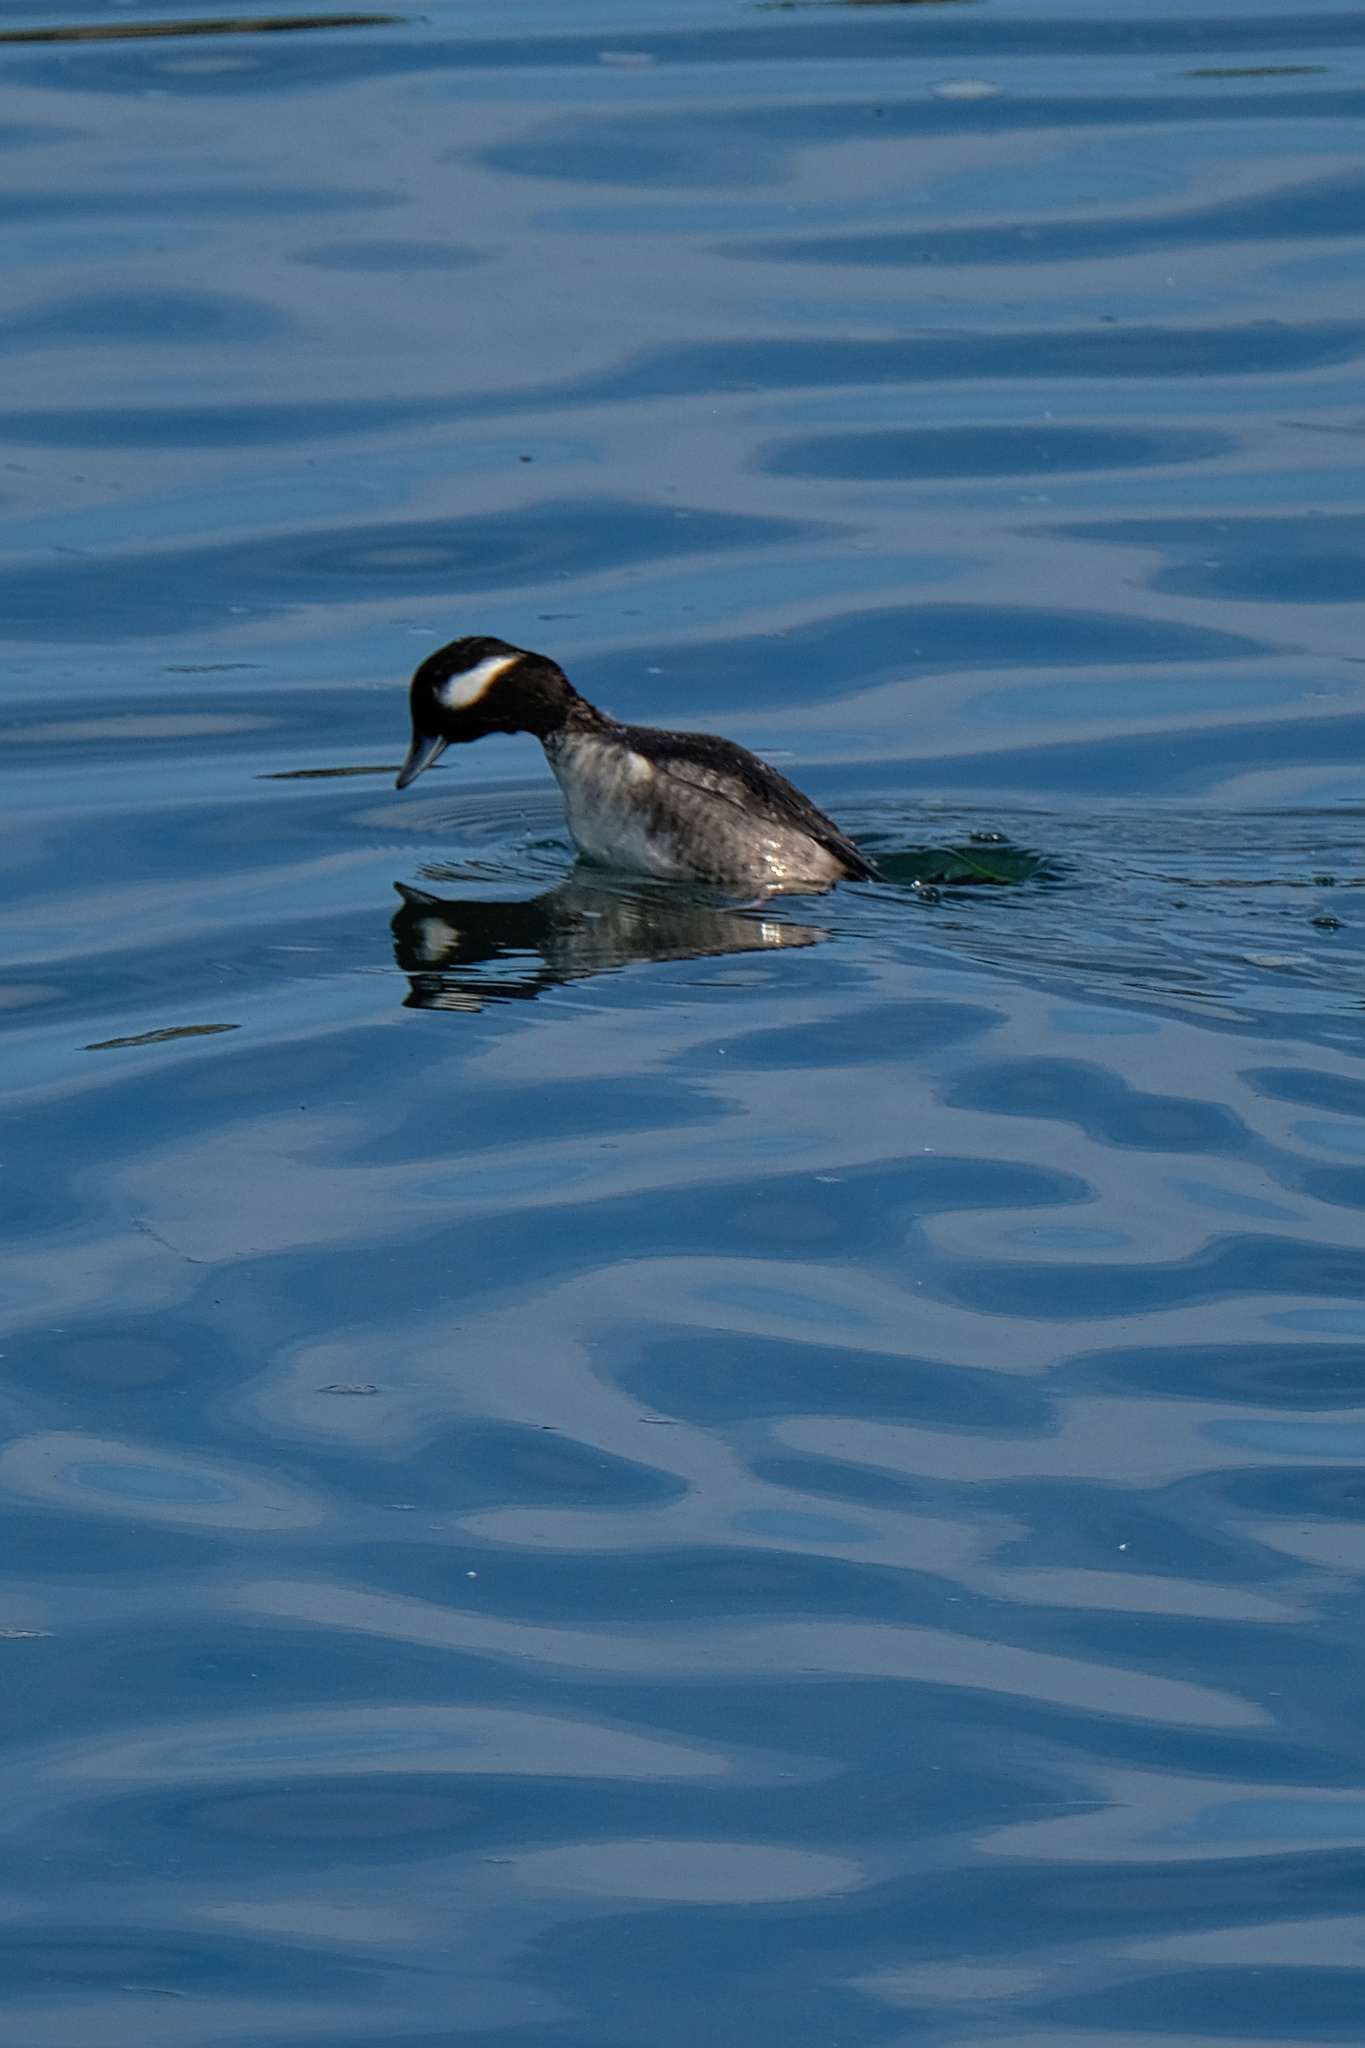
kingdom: Animalia
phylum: Chordata
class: Aves
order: Anseriformes
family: Anatidae
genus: Bucephala
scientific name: Bucephala albeola
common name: Bufflehead
